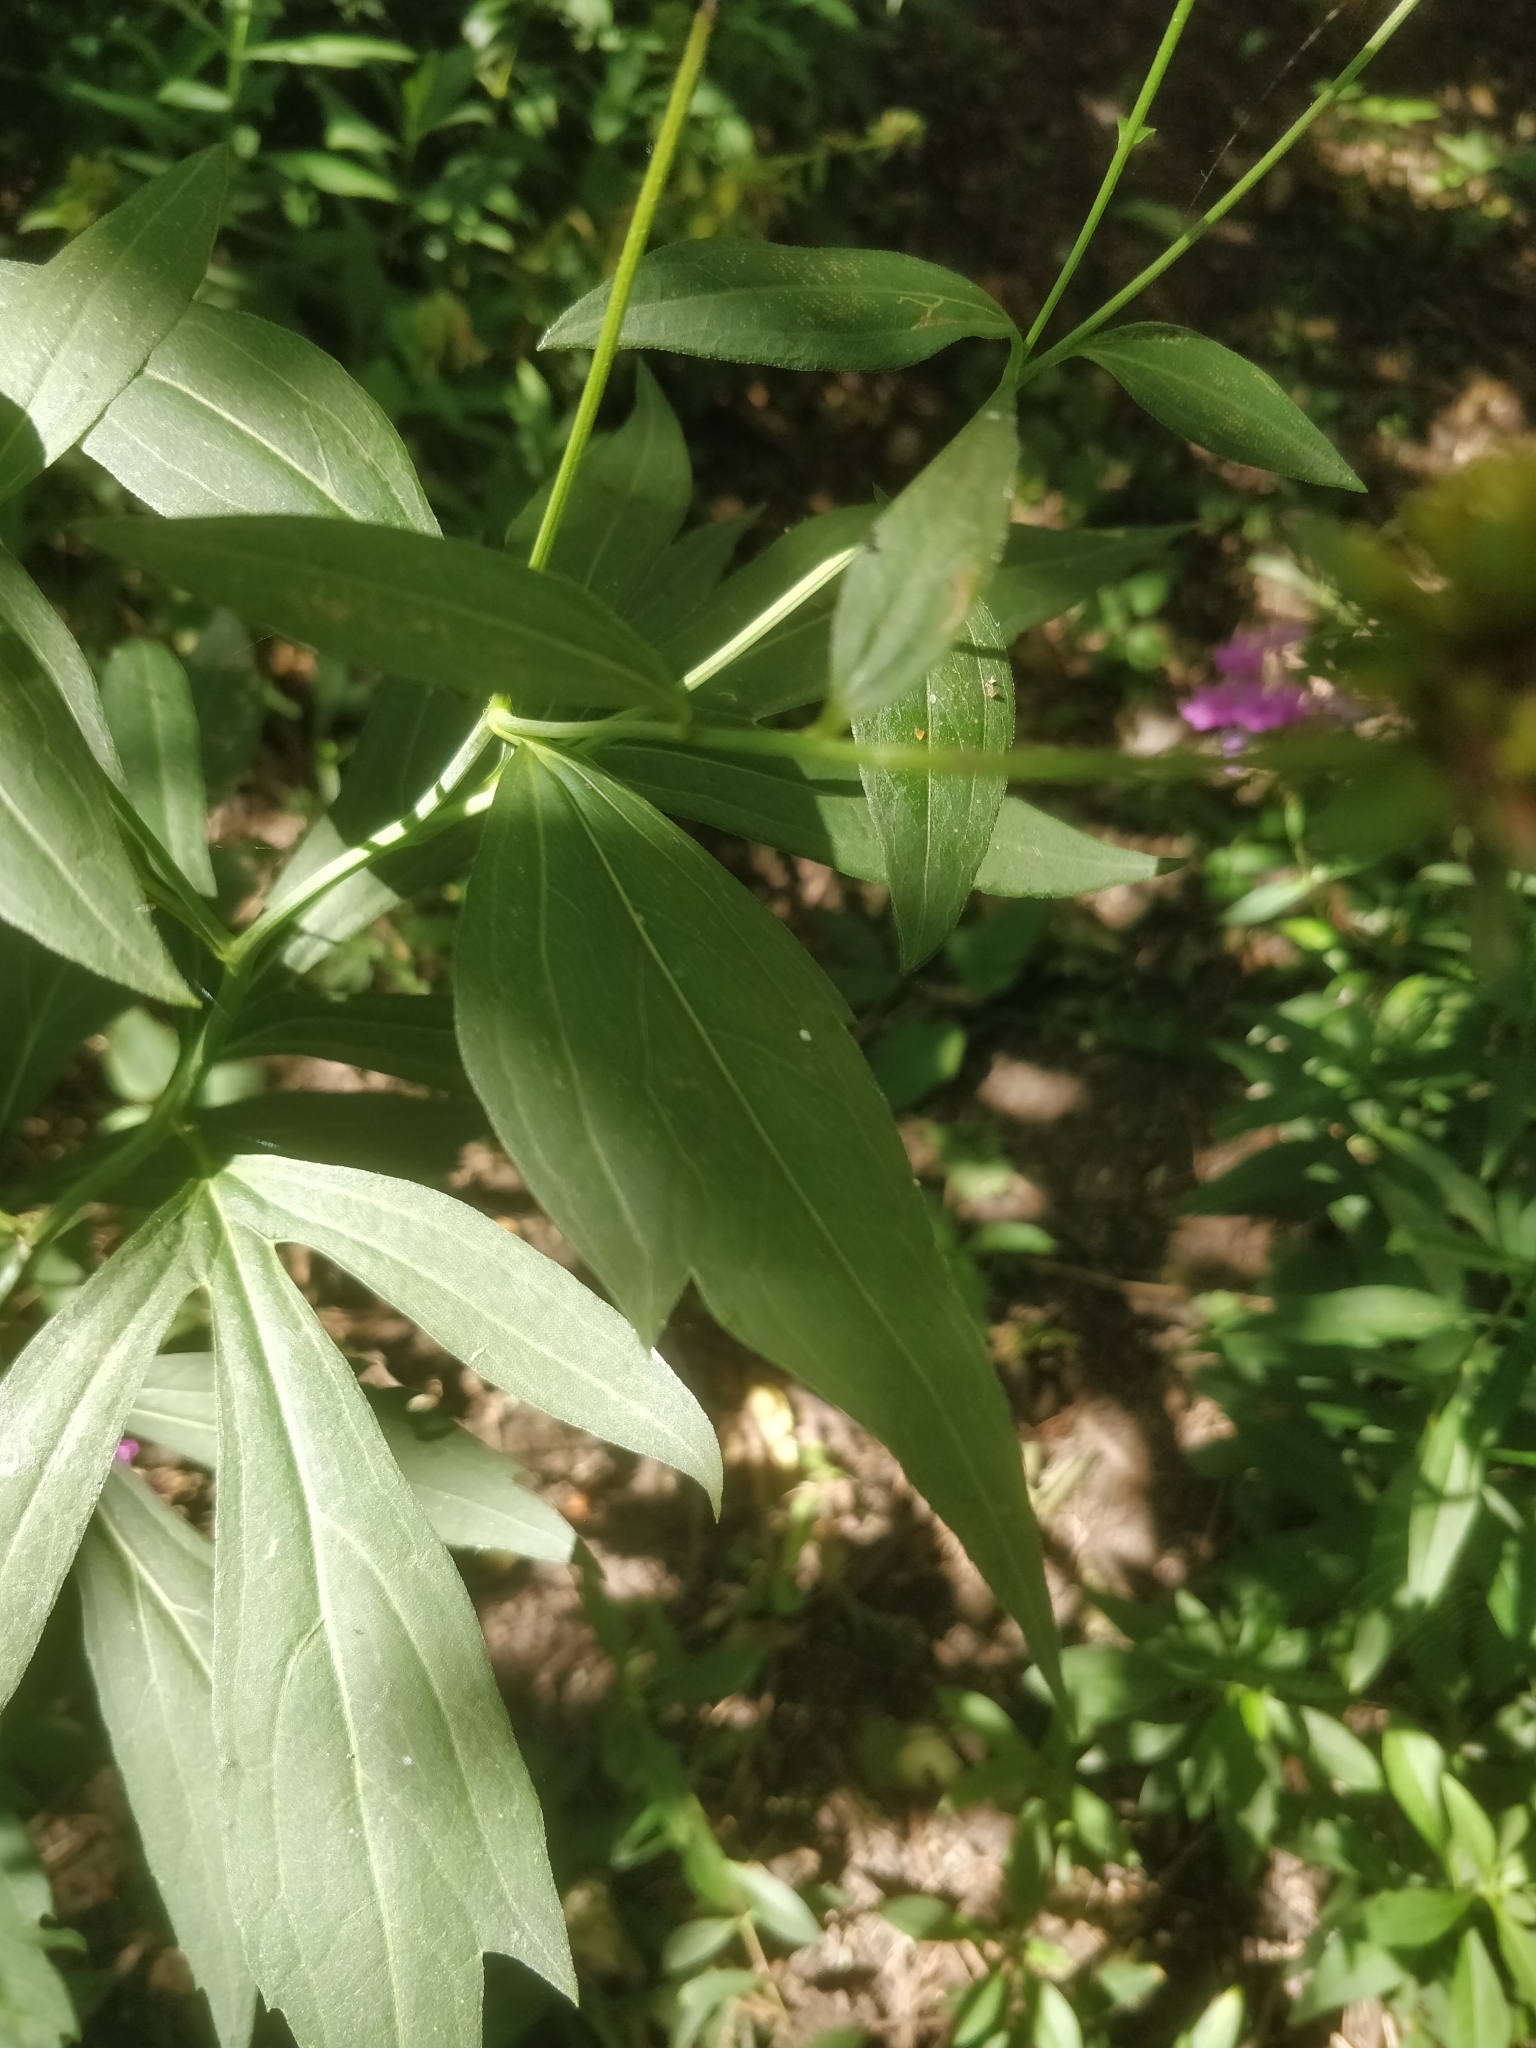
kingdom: Plantae
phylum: Tracheophyta
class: Magnoliopsida
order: Asterales
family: Asteraceae
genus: Rudbeckia
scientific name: Rudbeckia laciniata
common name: Coneflower
